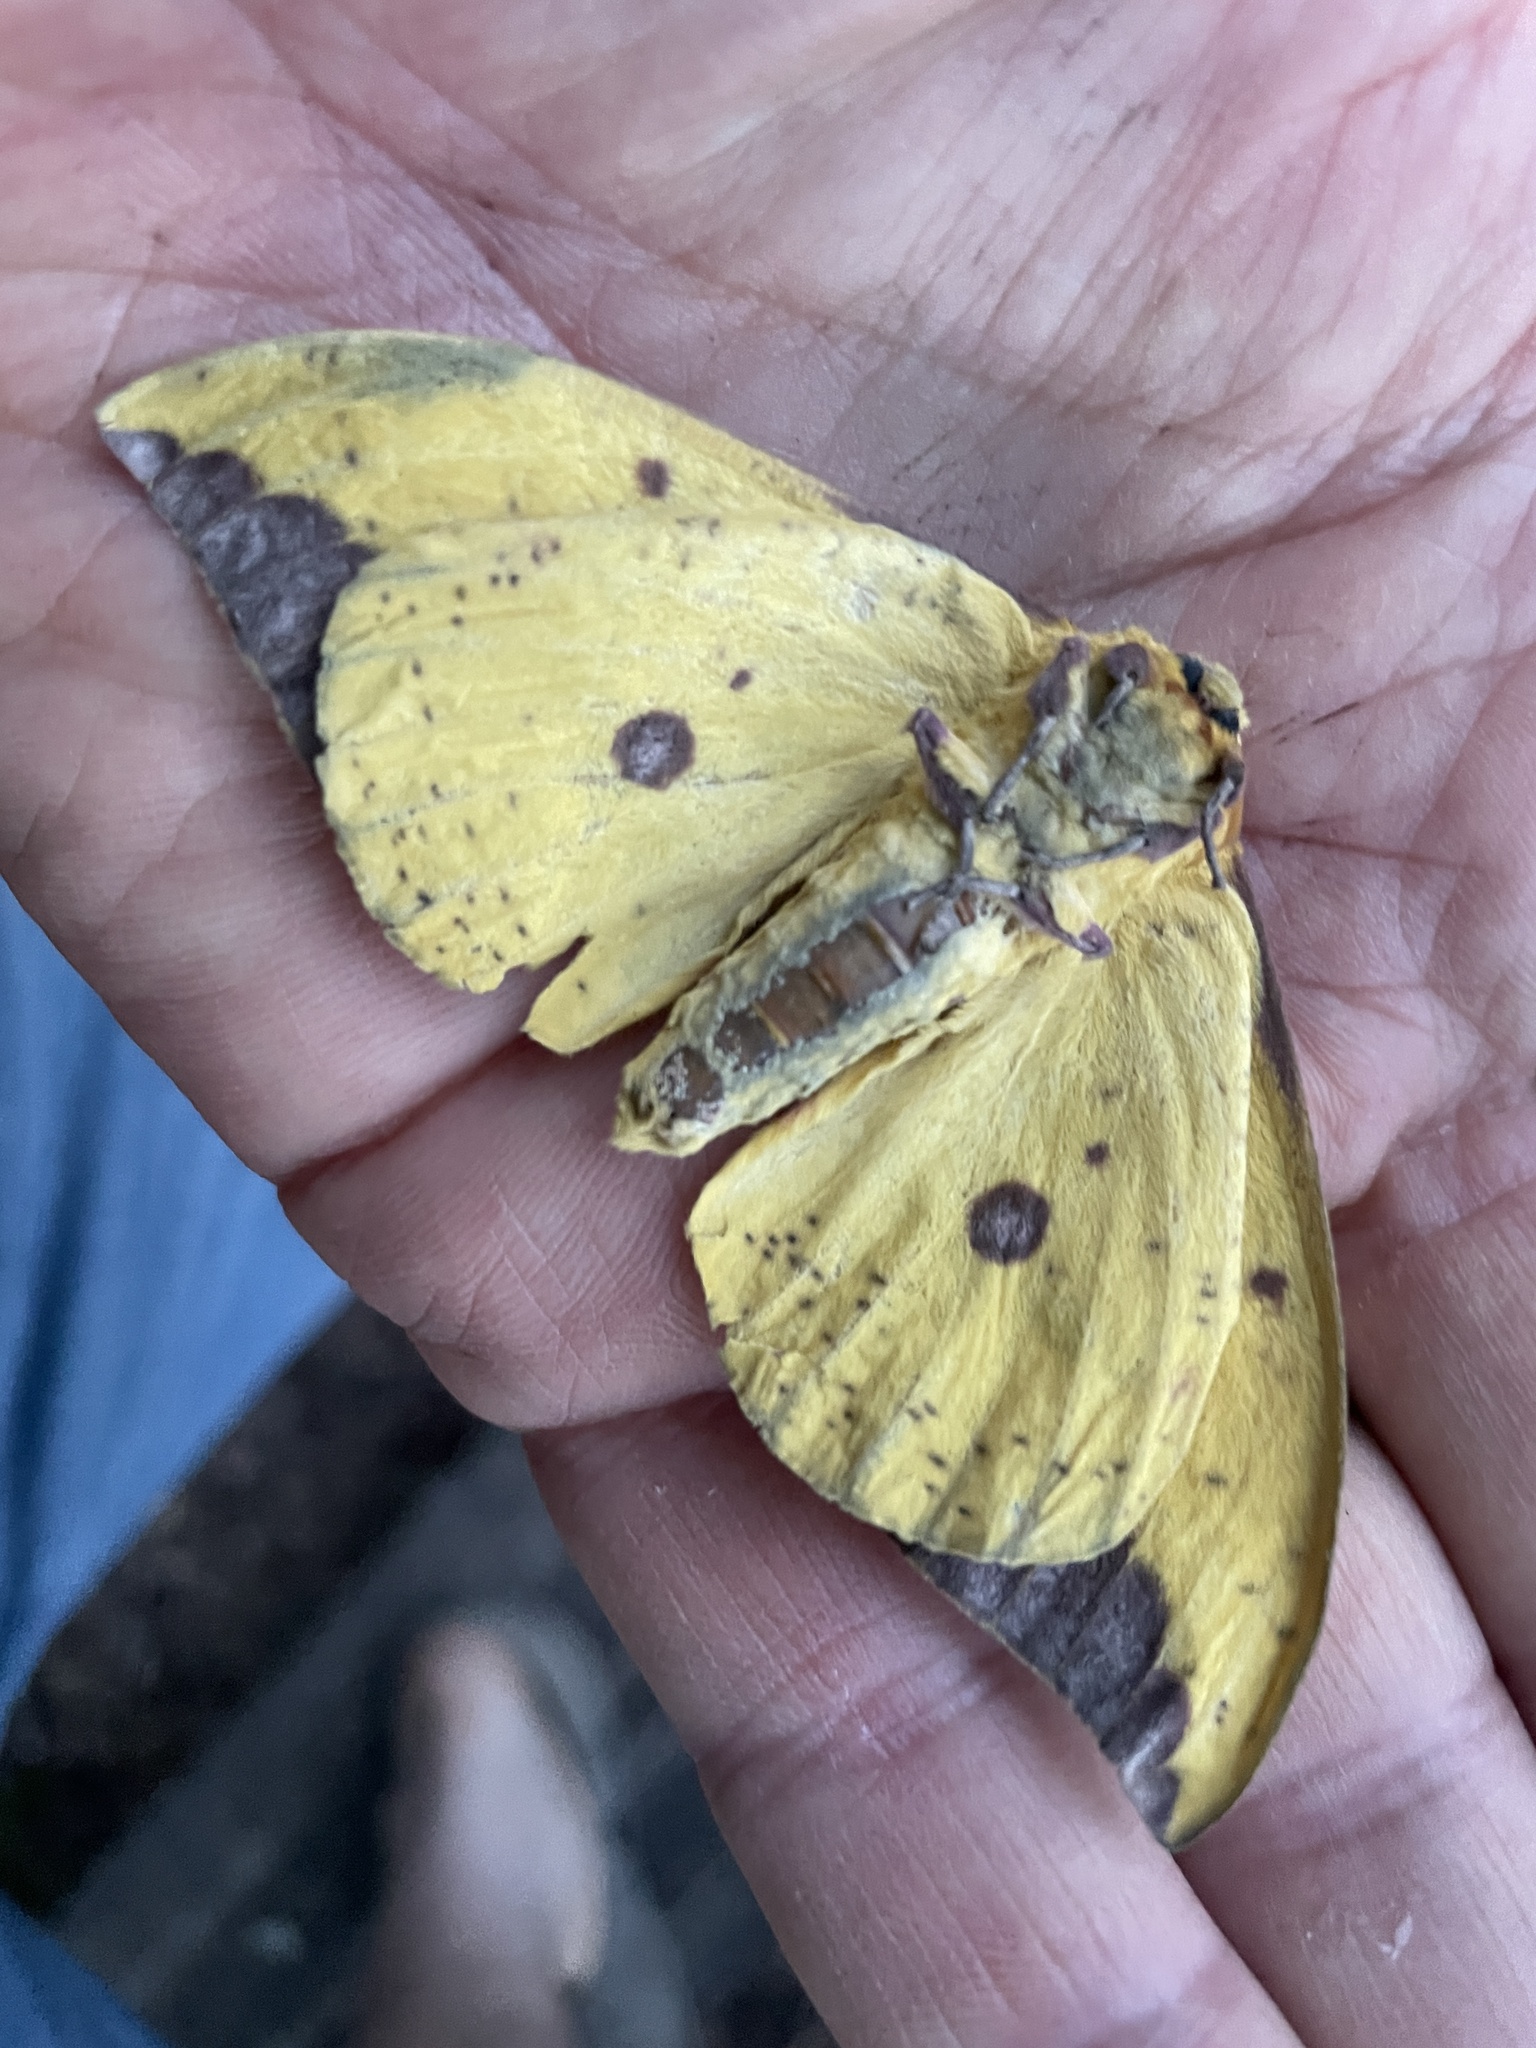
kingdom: Animalia
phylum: Arthropoda
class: Insecta
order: Lepidoptera
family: Saturniidae
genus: Eacles
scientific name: Eacles imperialis
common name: Imperial moth
